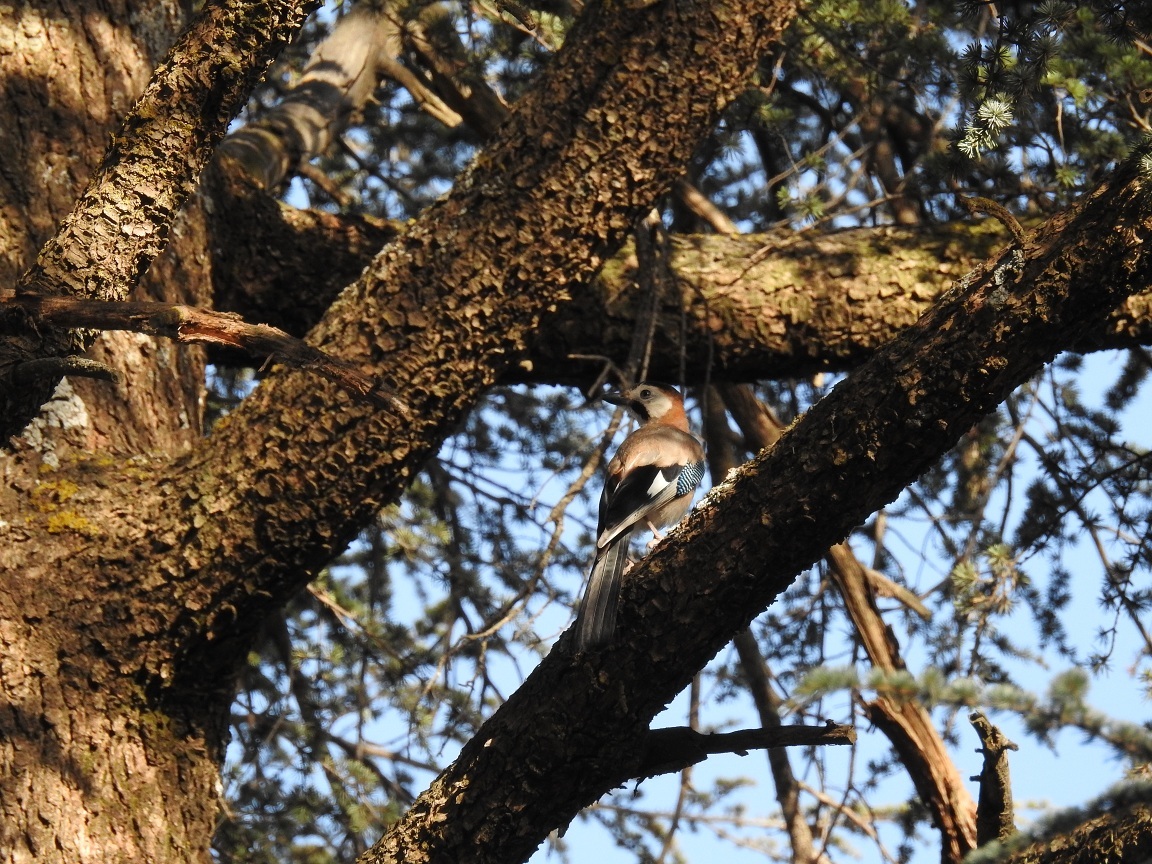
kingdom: Animalia
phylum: Chordata
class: Aves
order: Passeriformes
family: Corvidae
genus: Garrulus
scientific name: Garrulus glandarius
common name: Eurasian jay
